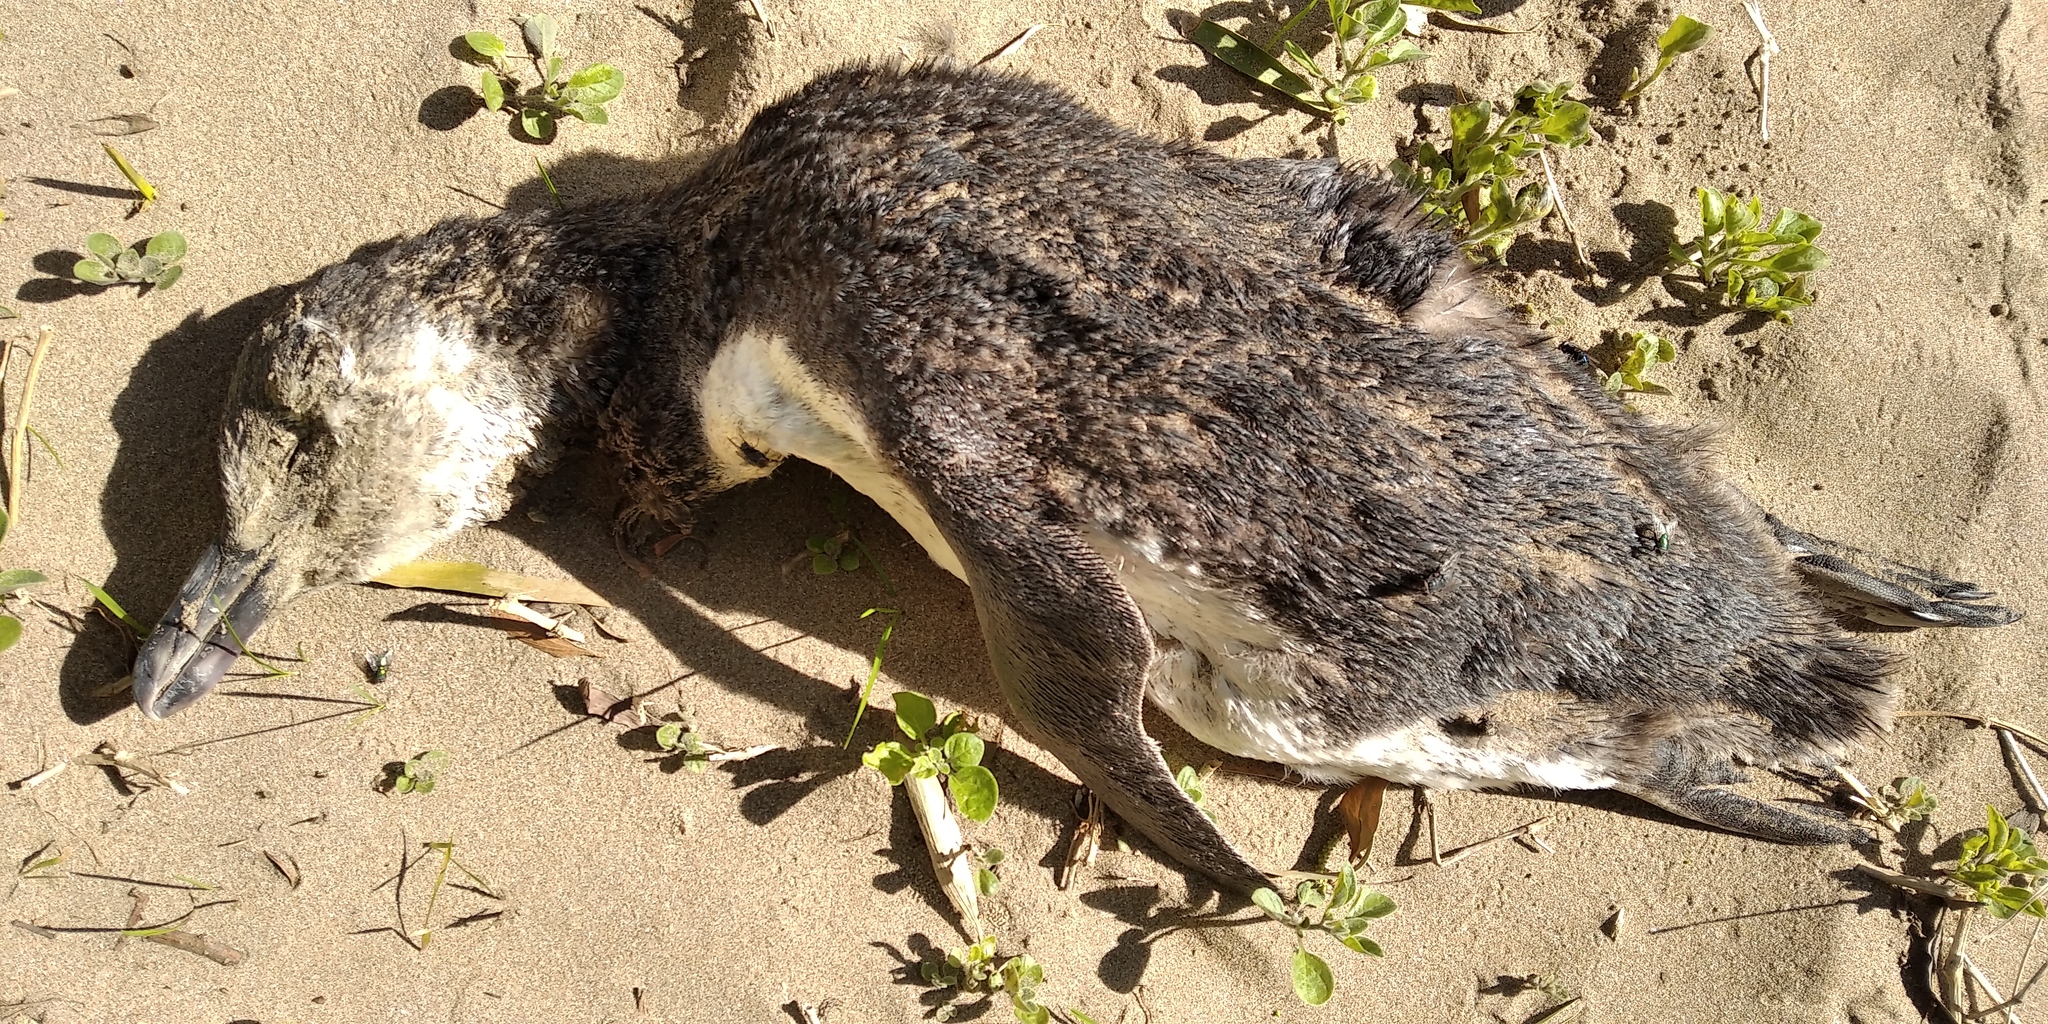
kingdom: Animalia
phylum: Chordata
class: Aves
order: Sphenisciformes
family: Spheniscidae
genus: Spheniscus
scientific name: Spheniscus magellanicus
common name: Magellanic penguin
